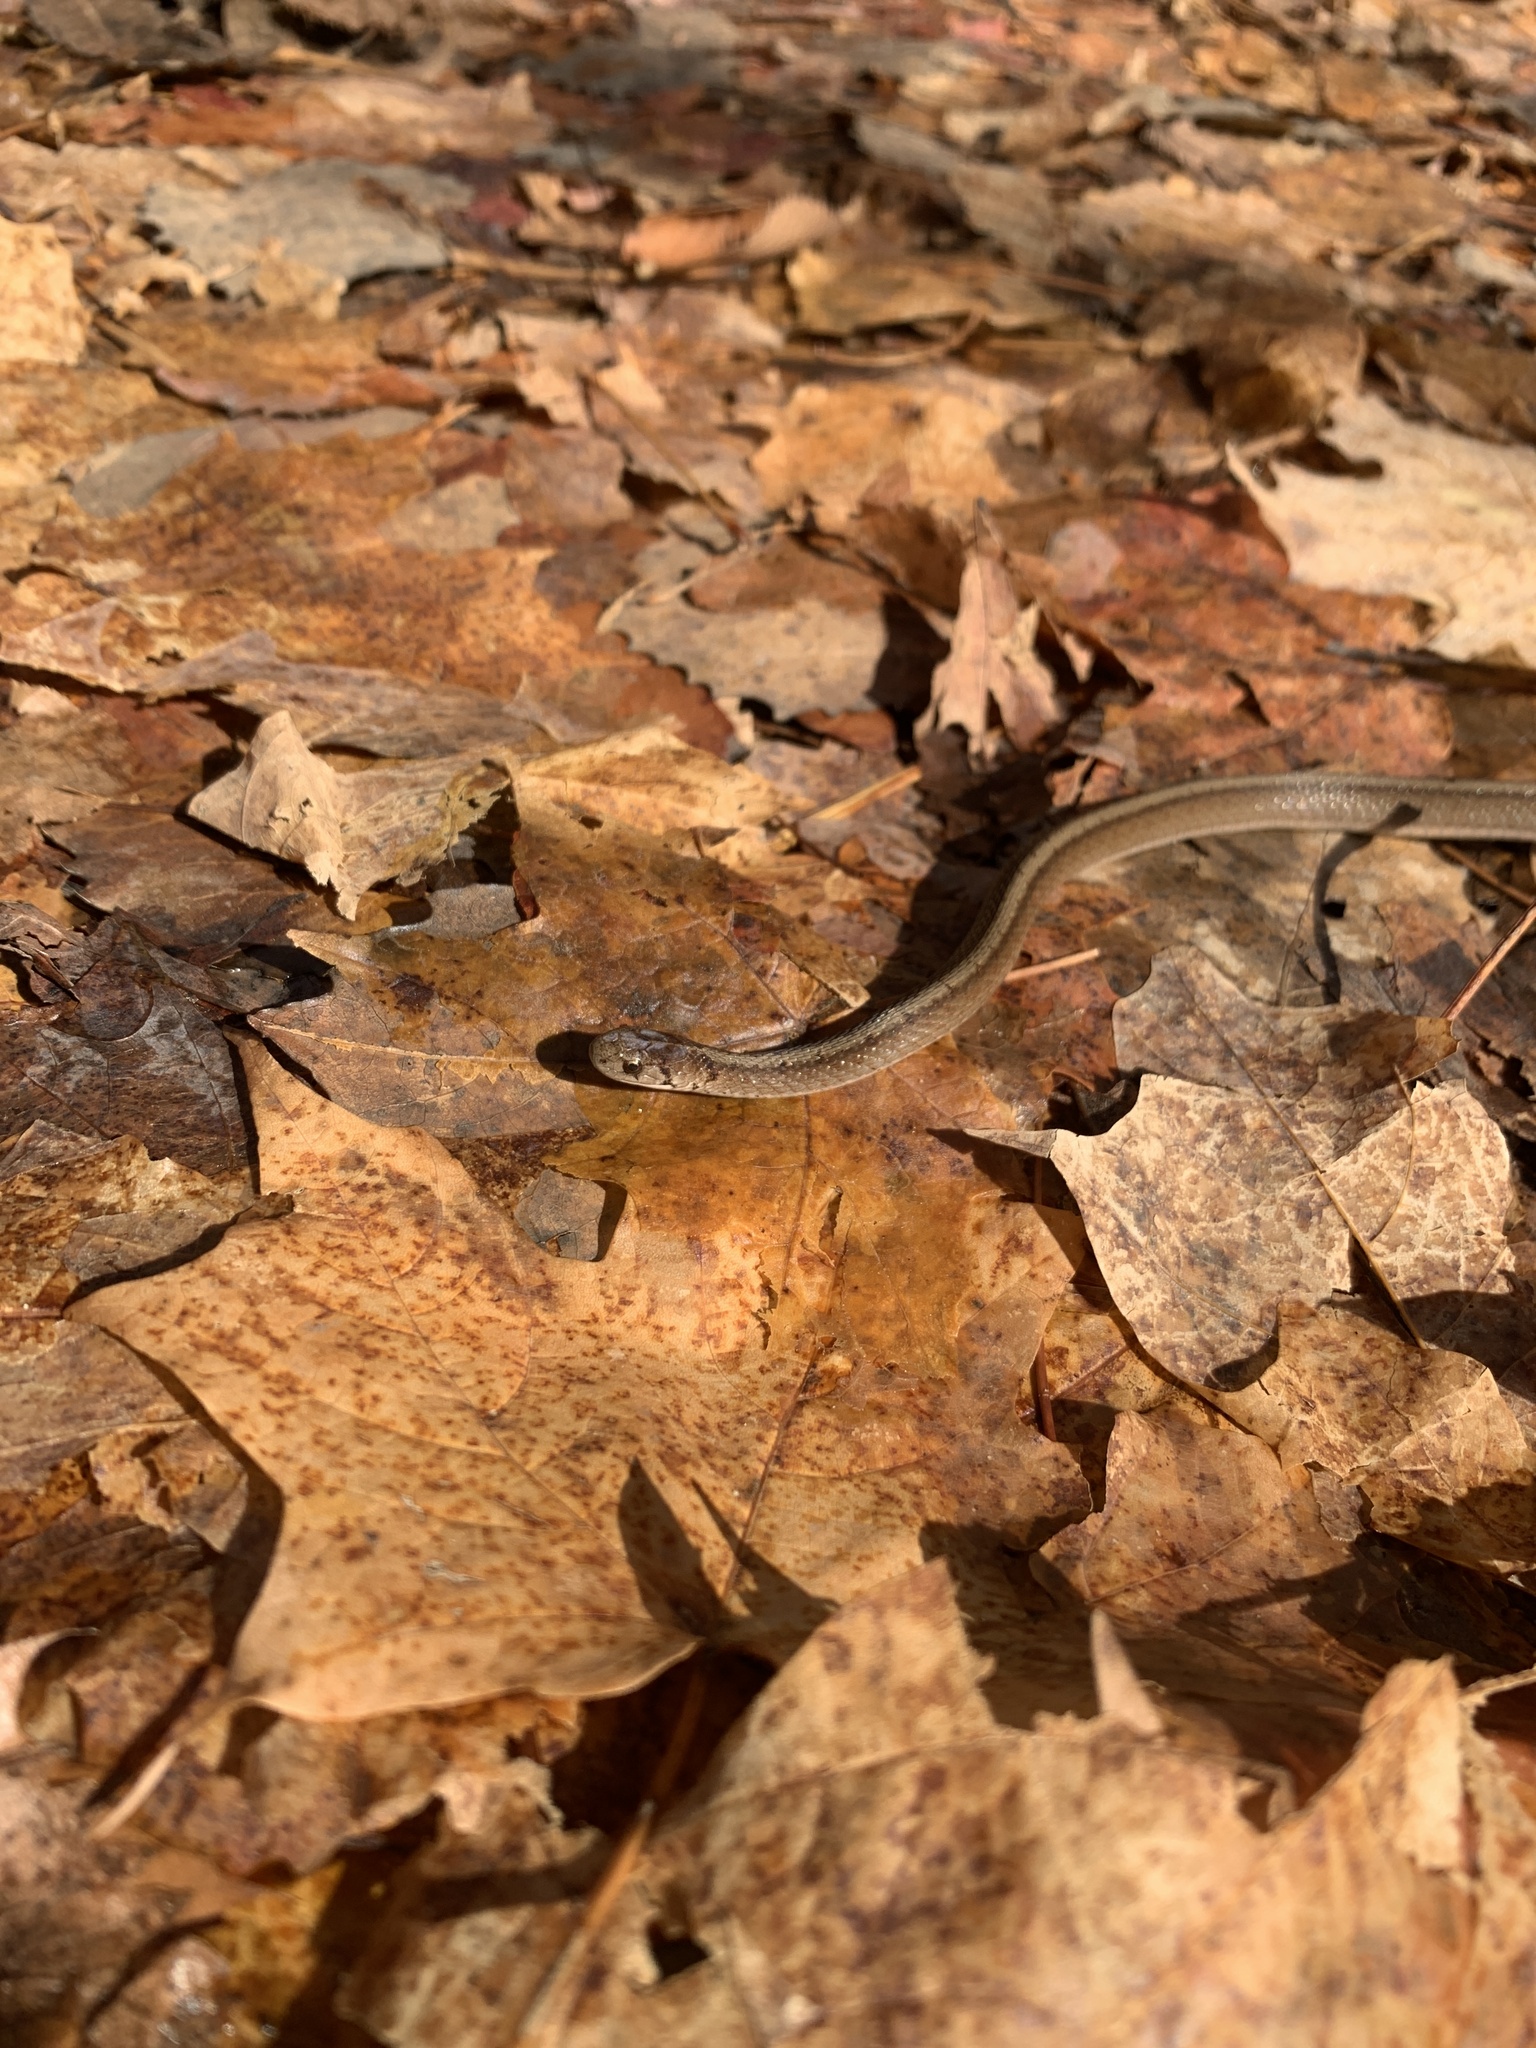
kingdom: Animalia
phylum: Chordata
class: Squamata
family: Colubridae
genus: Storeria
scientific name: Storeria dekayi
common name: (dekay’s) brown snake
